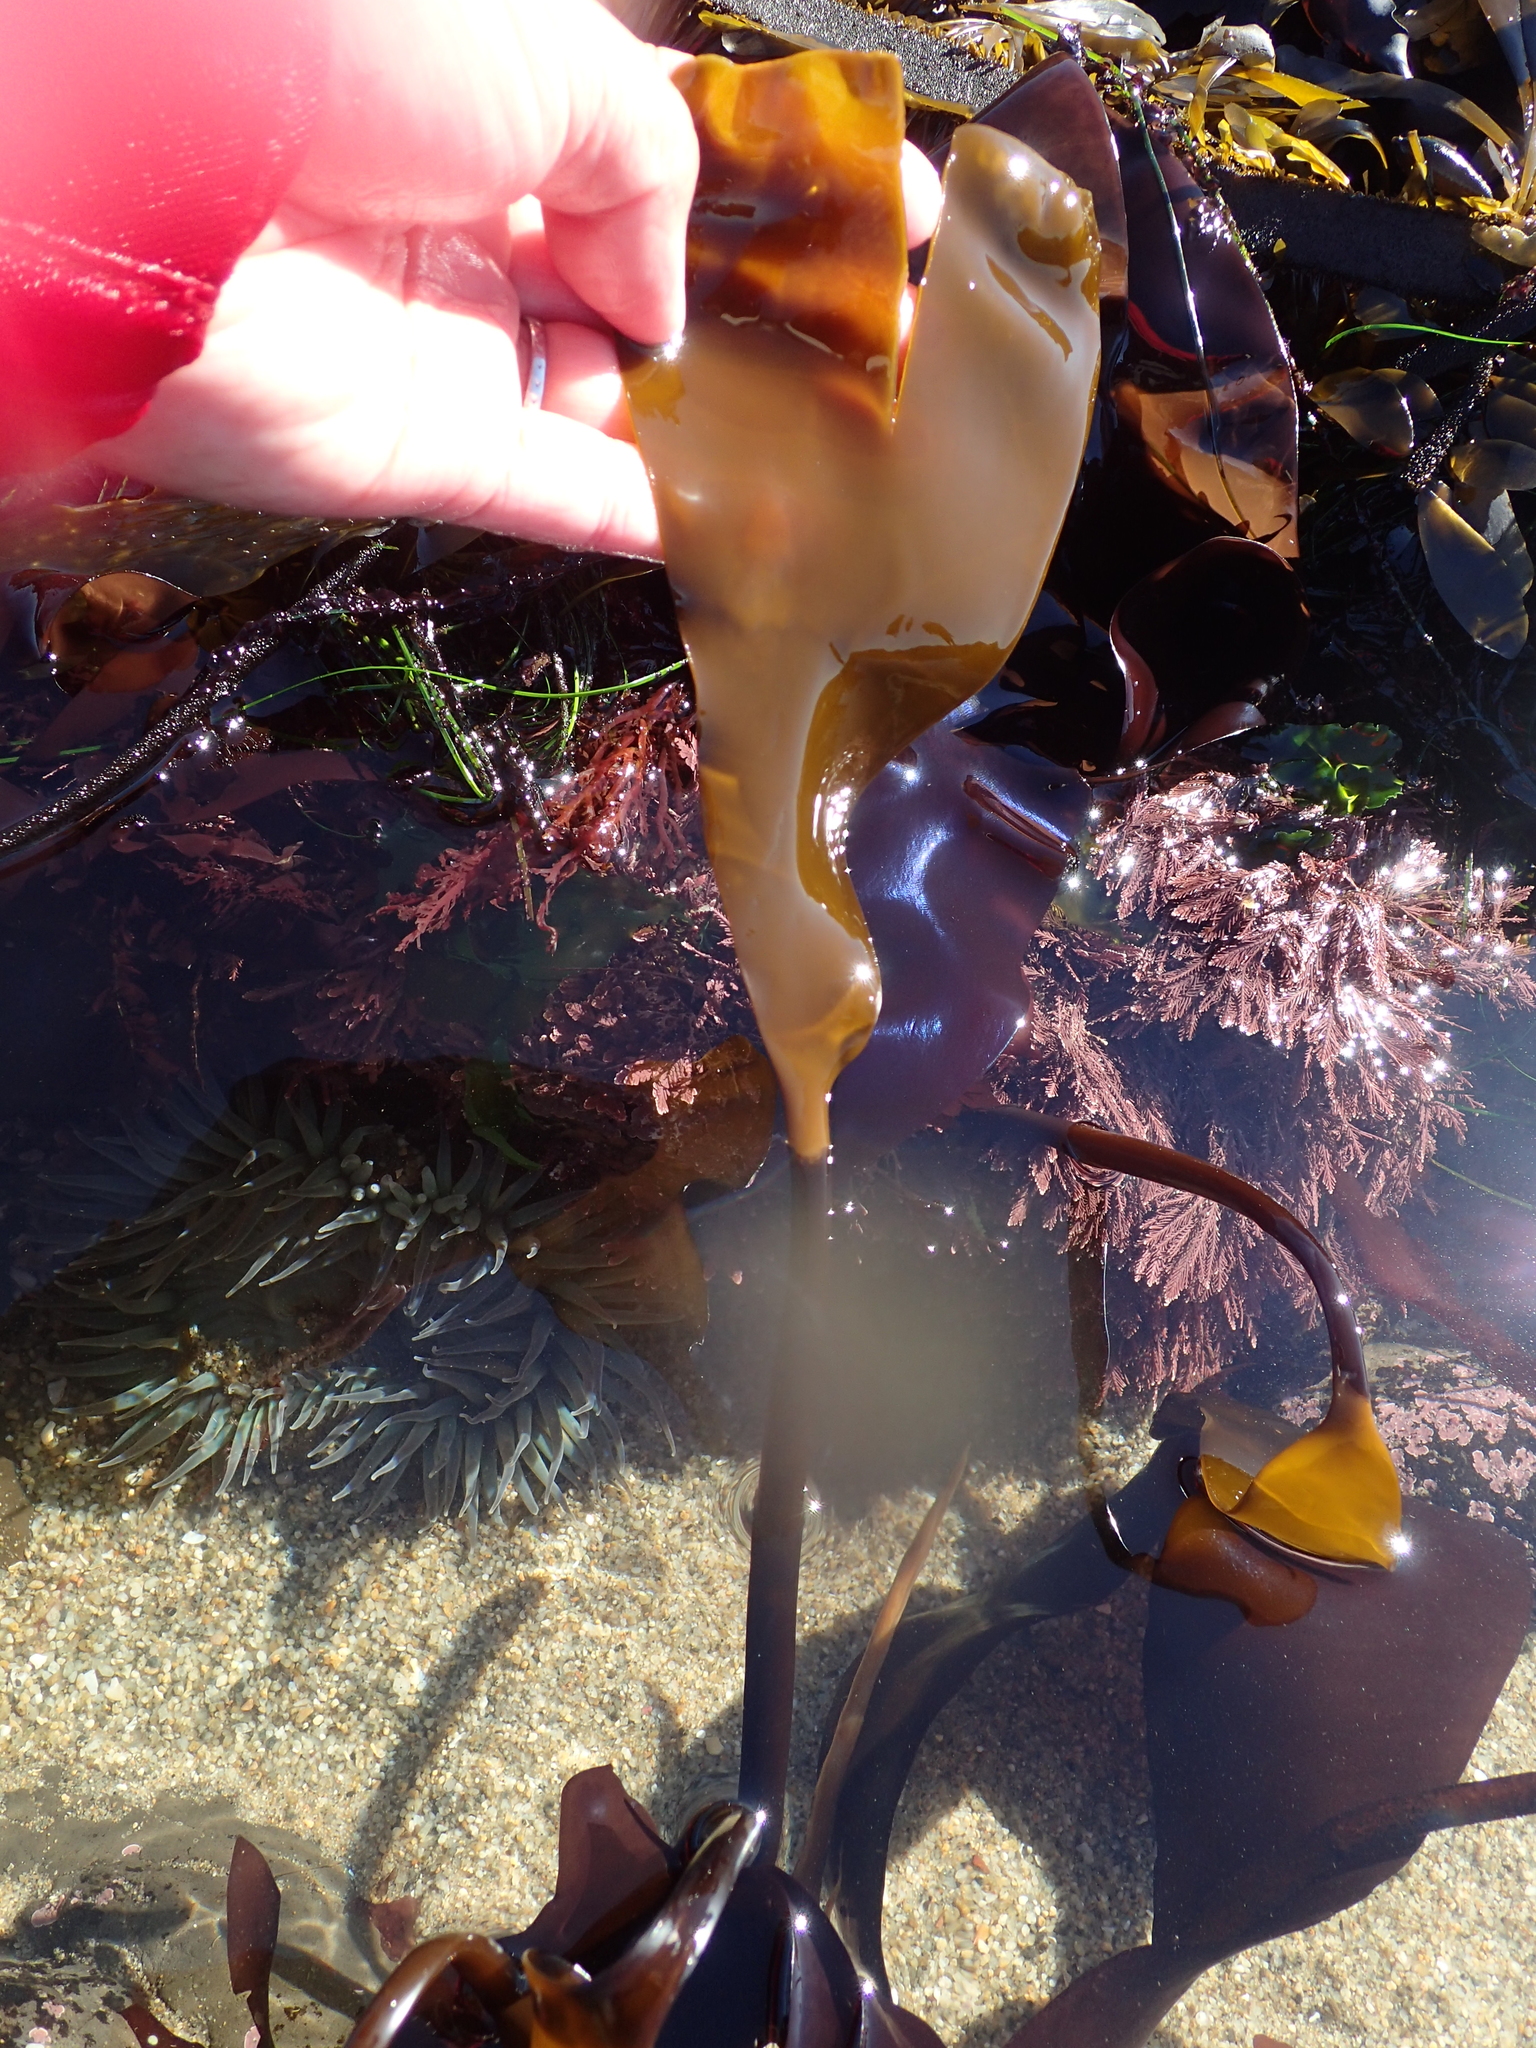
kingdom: Chromista
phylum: Ochrophyta
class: Phaeophyceae
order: Laminariales
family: Laminariaceae
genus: Laminaria
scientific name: Laminaria setchellii
